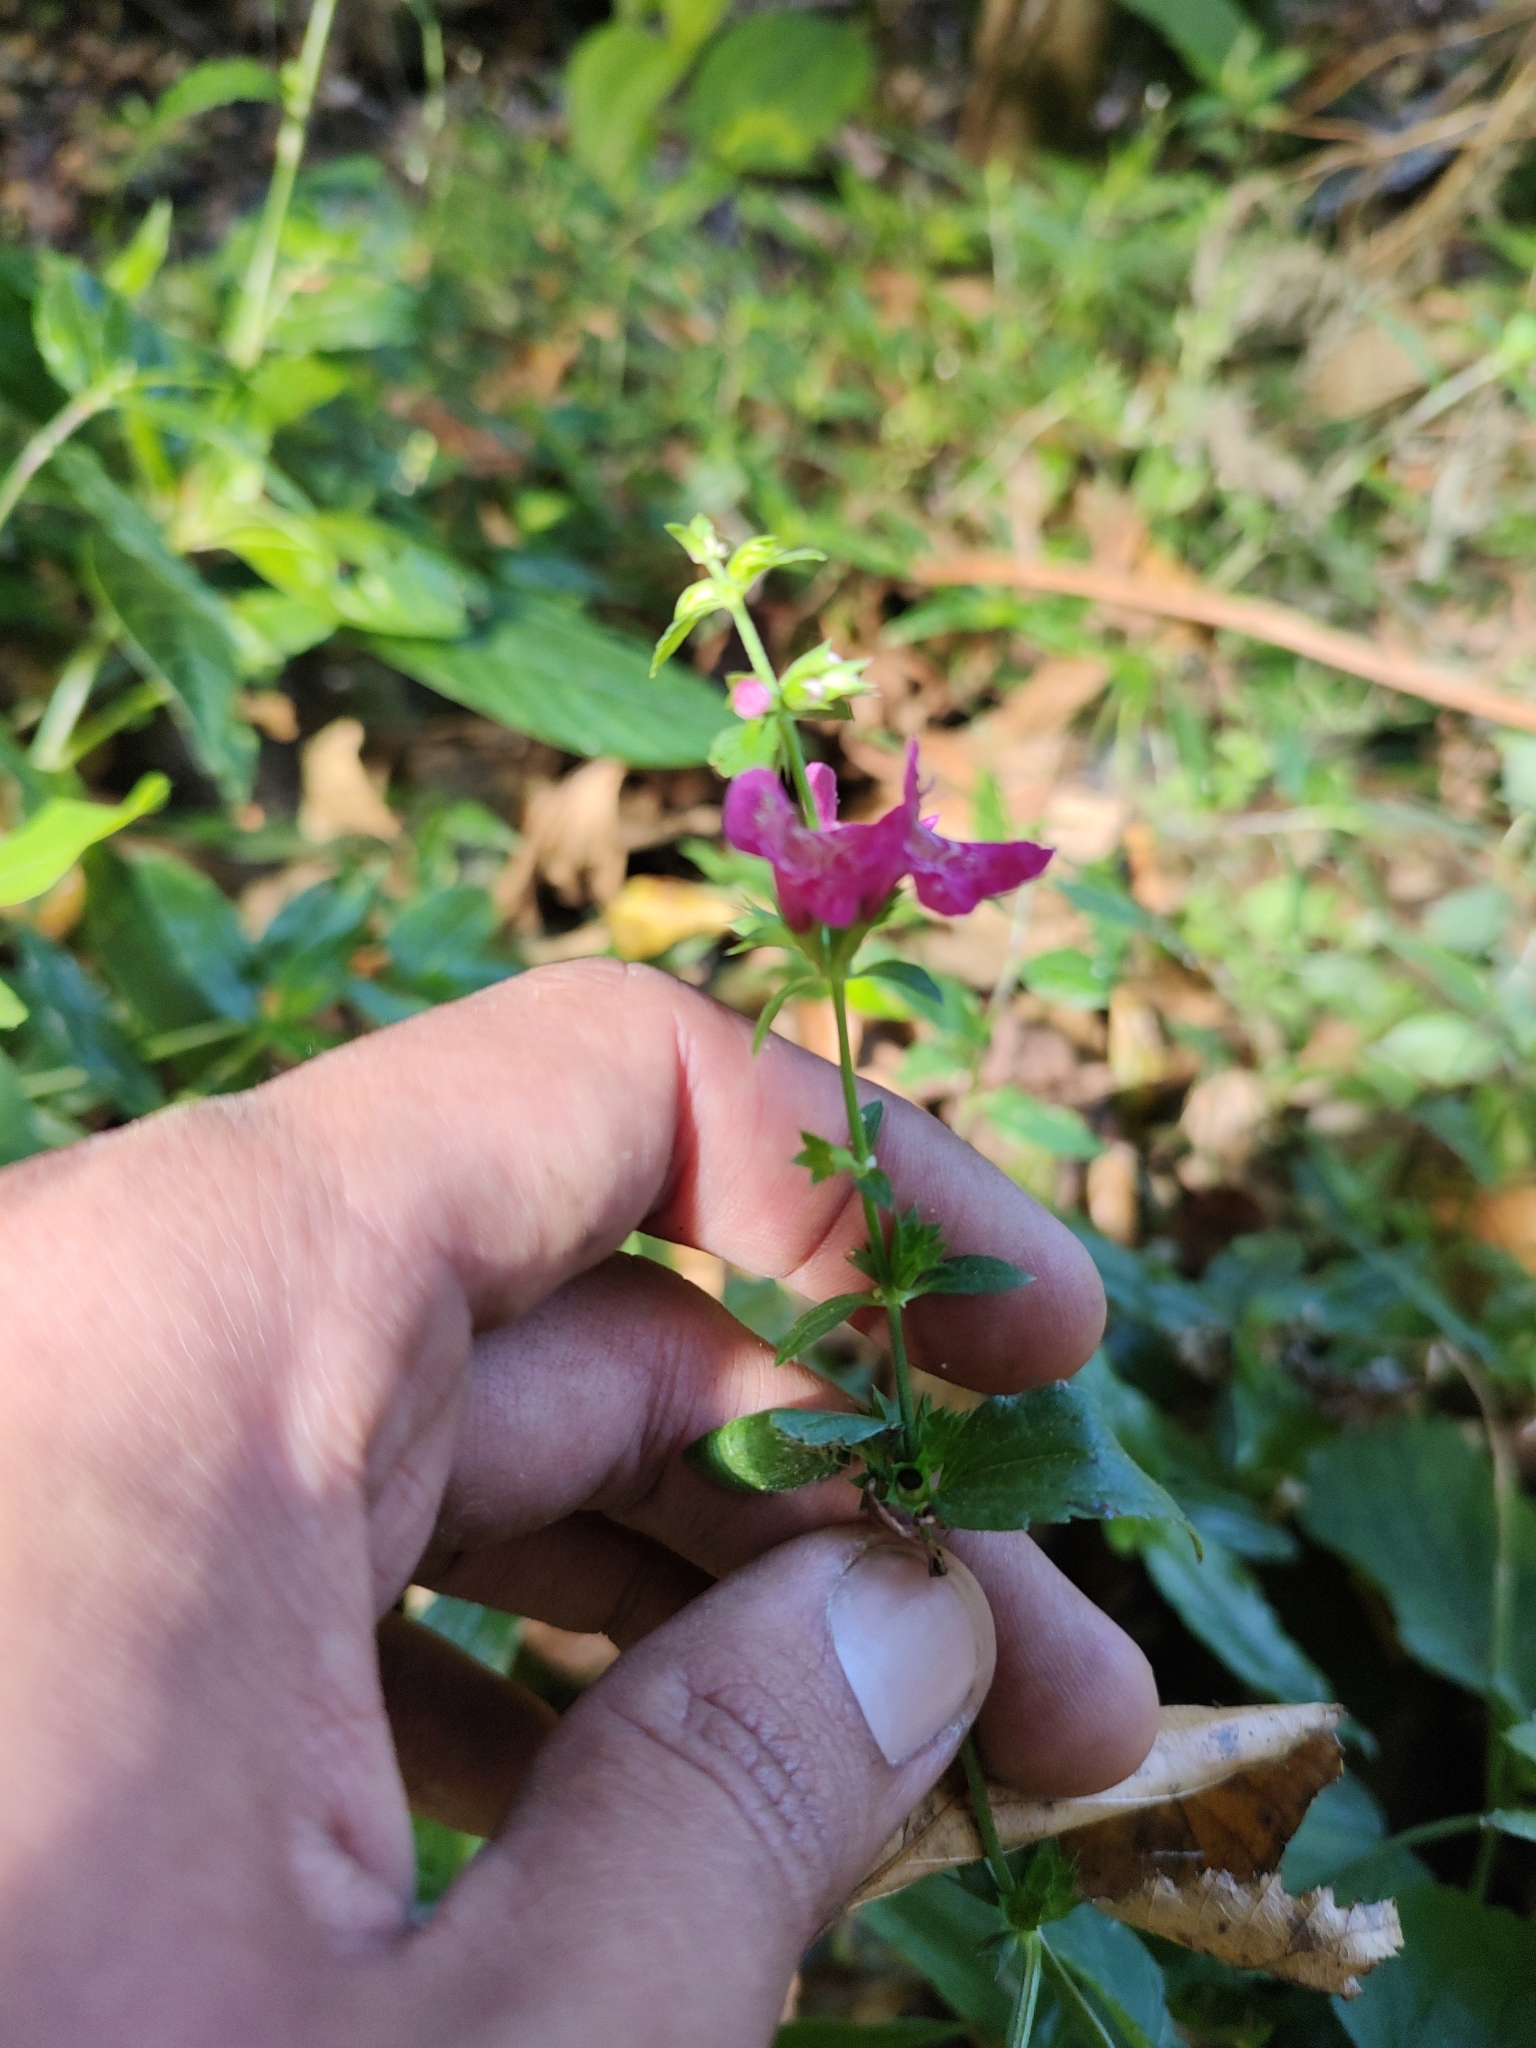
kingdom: Plantae
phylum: Tracheophyta
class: Magnoliopsida
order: Lamiales
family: Lamiaceae
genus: Stachys
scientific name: Stachys coccinea
